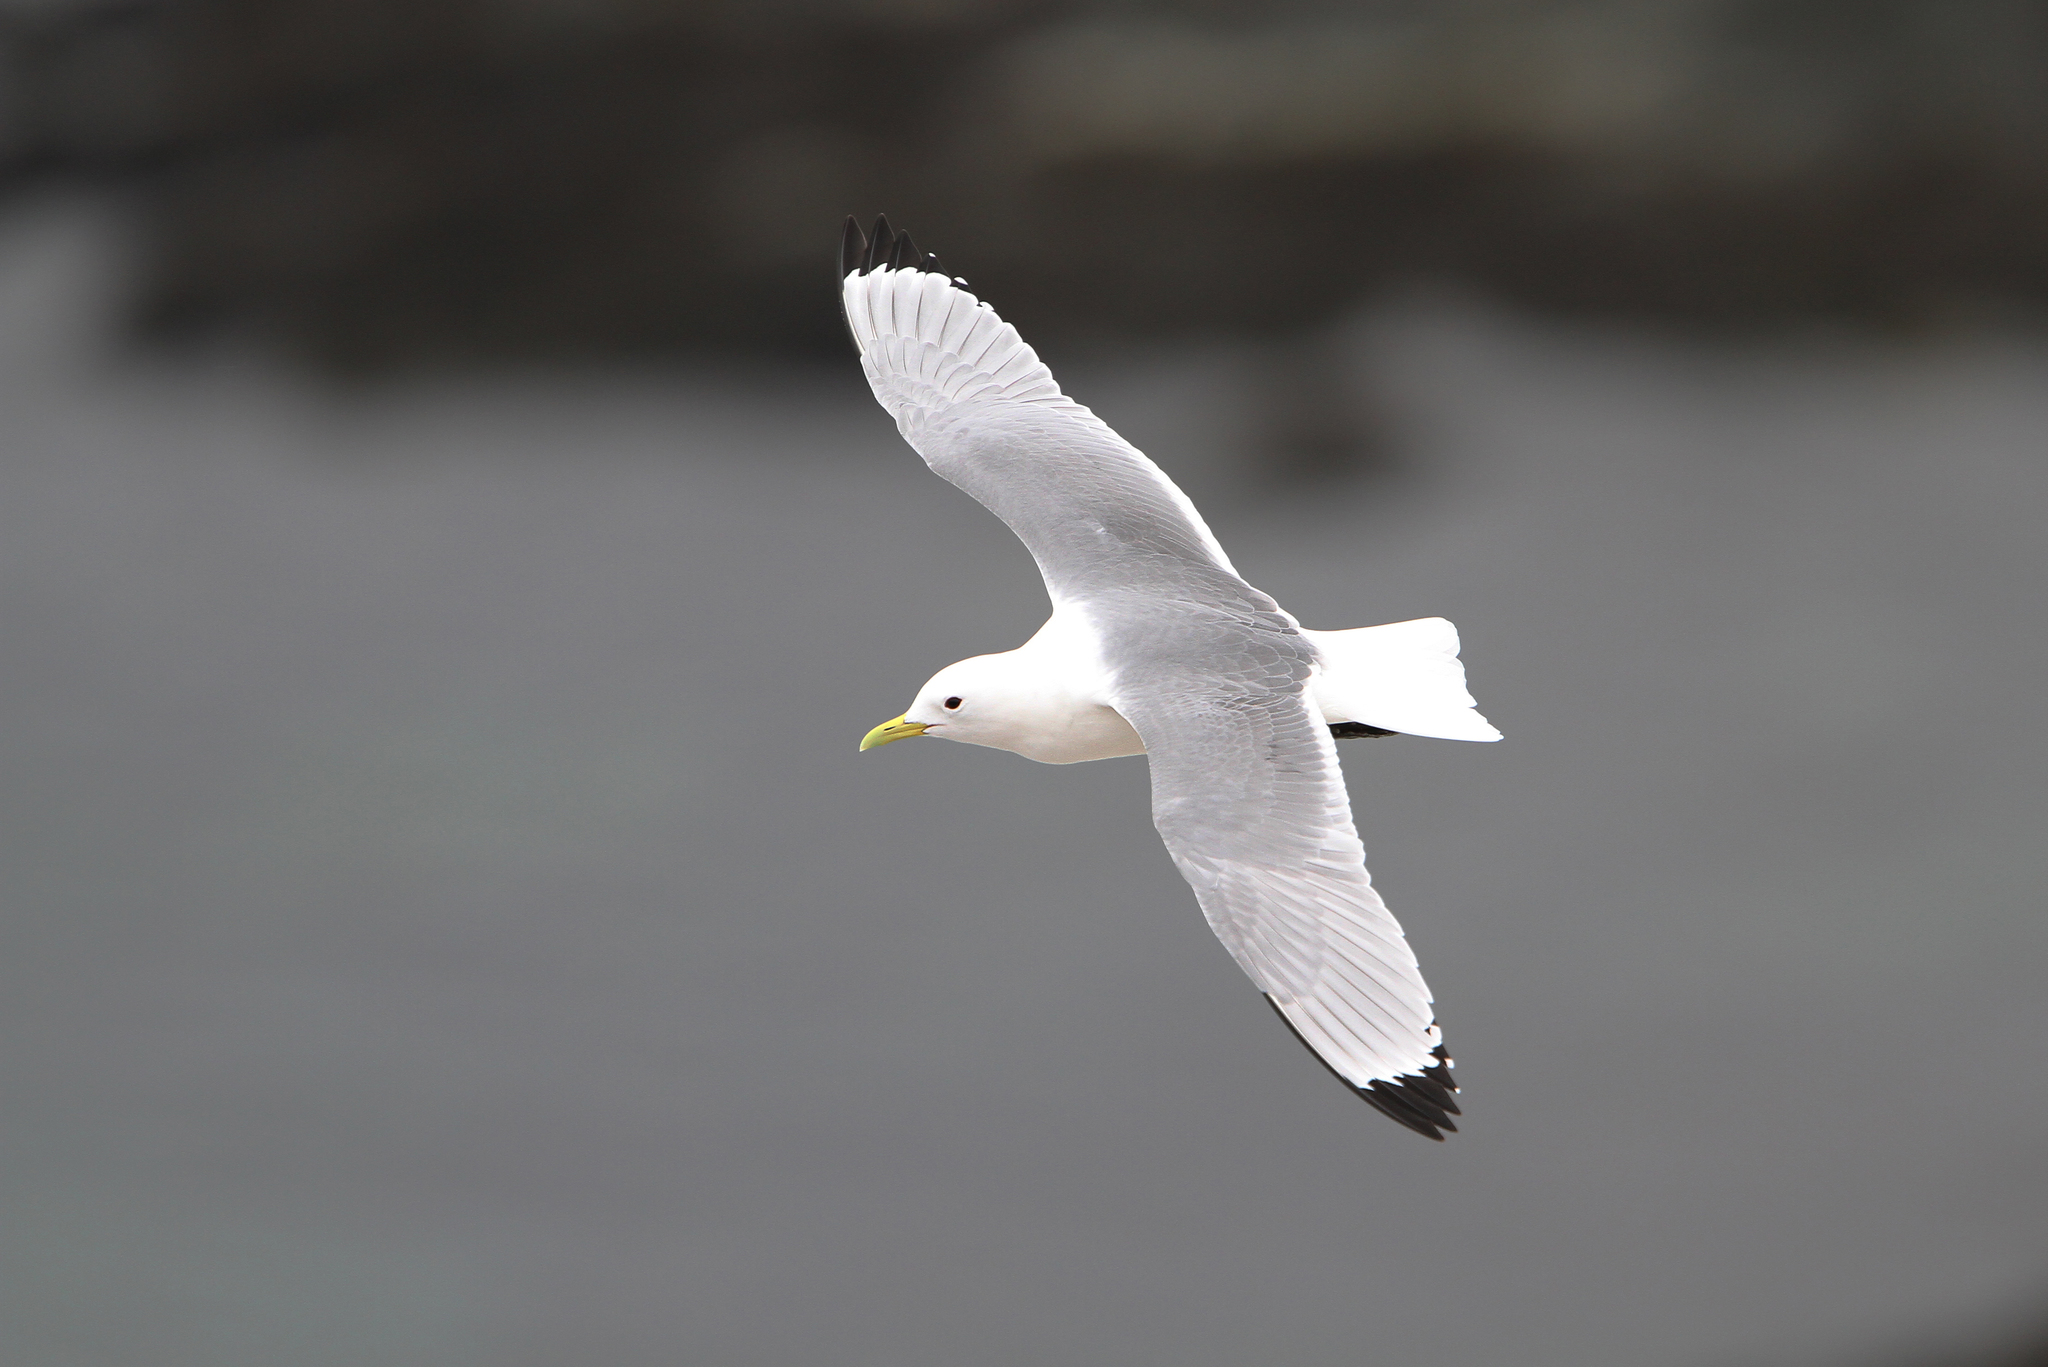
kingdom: Animalia
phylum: Chordata
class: Aves
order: Charadriiformes
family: Laridae
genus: Rissa
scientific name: Rissa tridactyla
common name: Black-legged kittiwake
